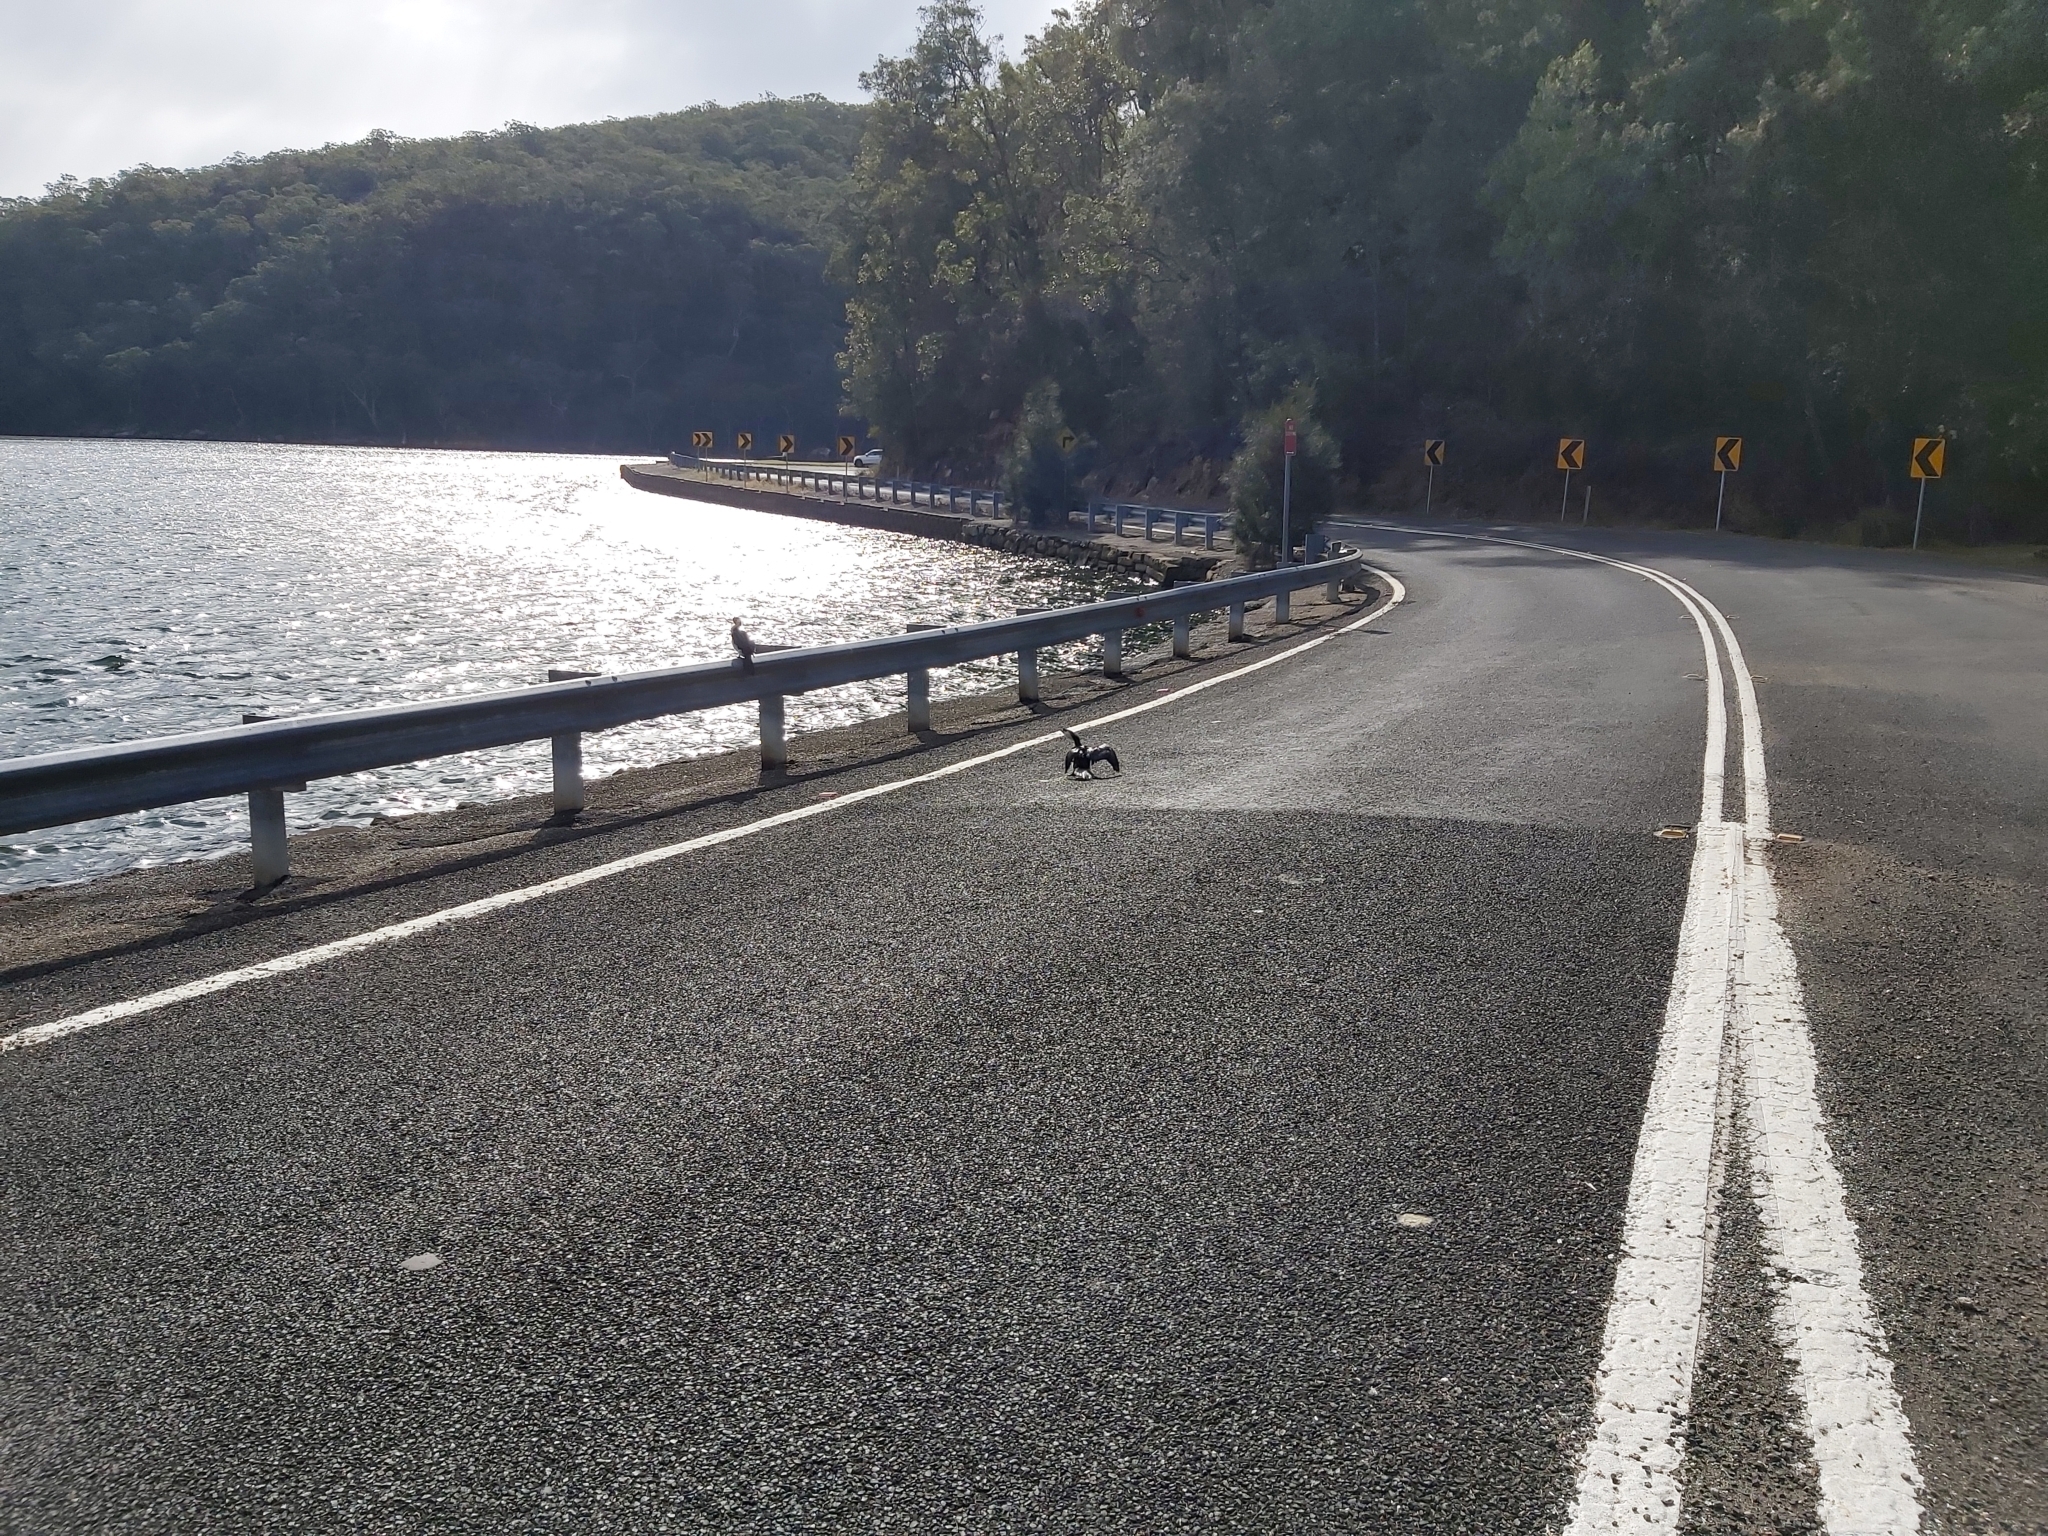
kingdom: Animalia
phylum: Chordata
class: Aves
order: Suliformes
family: Phalacrocoracidae
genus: Microcarbo
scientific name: Microcarbo melanoleucos
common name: Little pied cormorant
